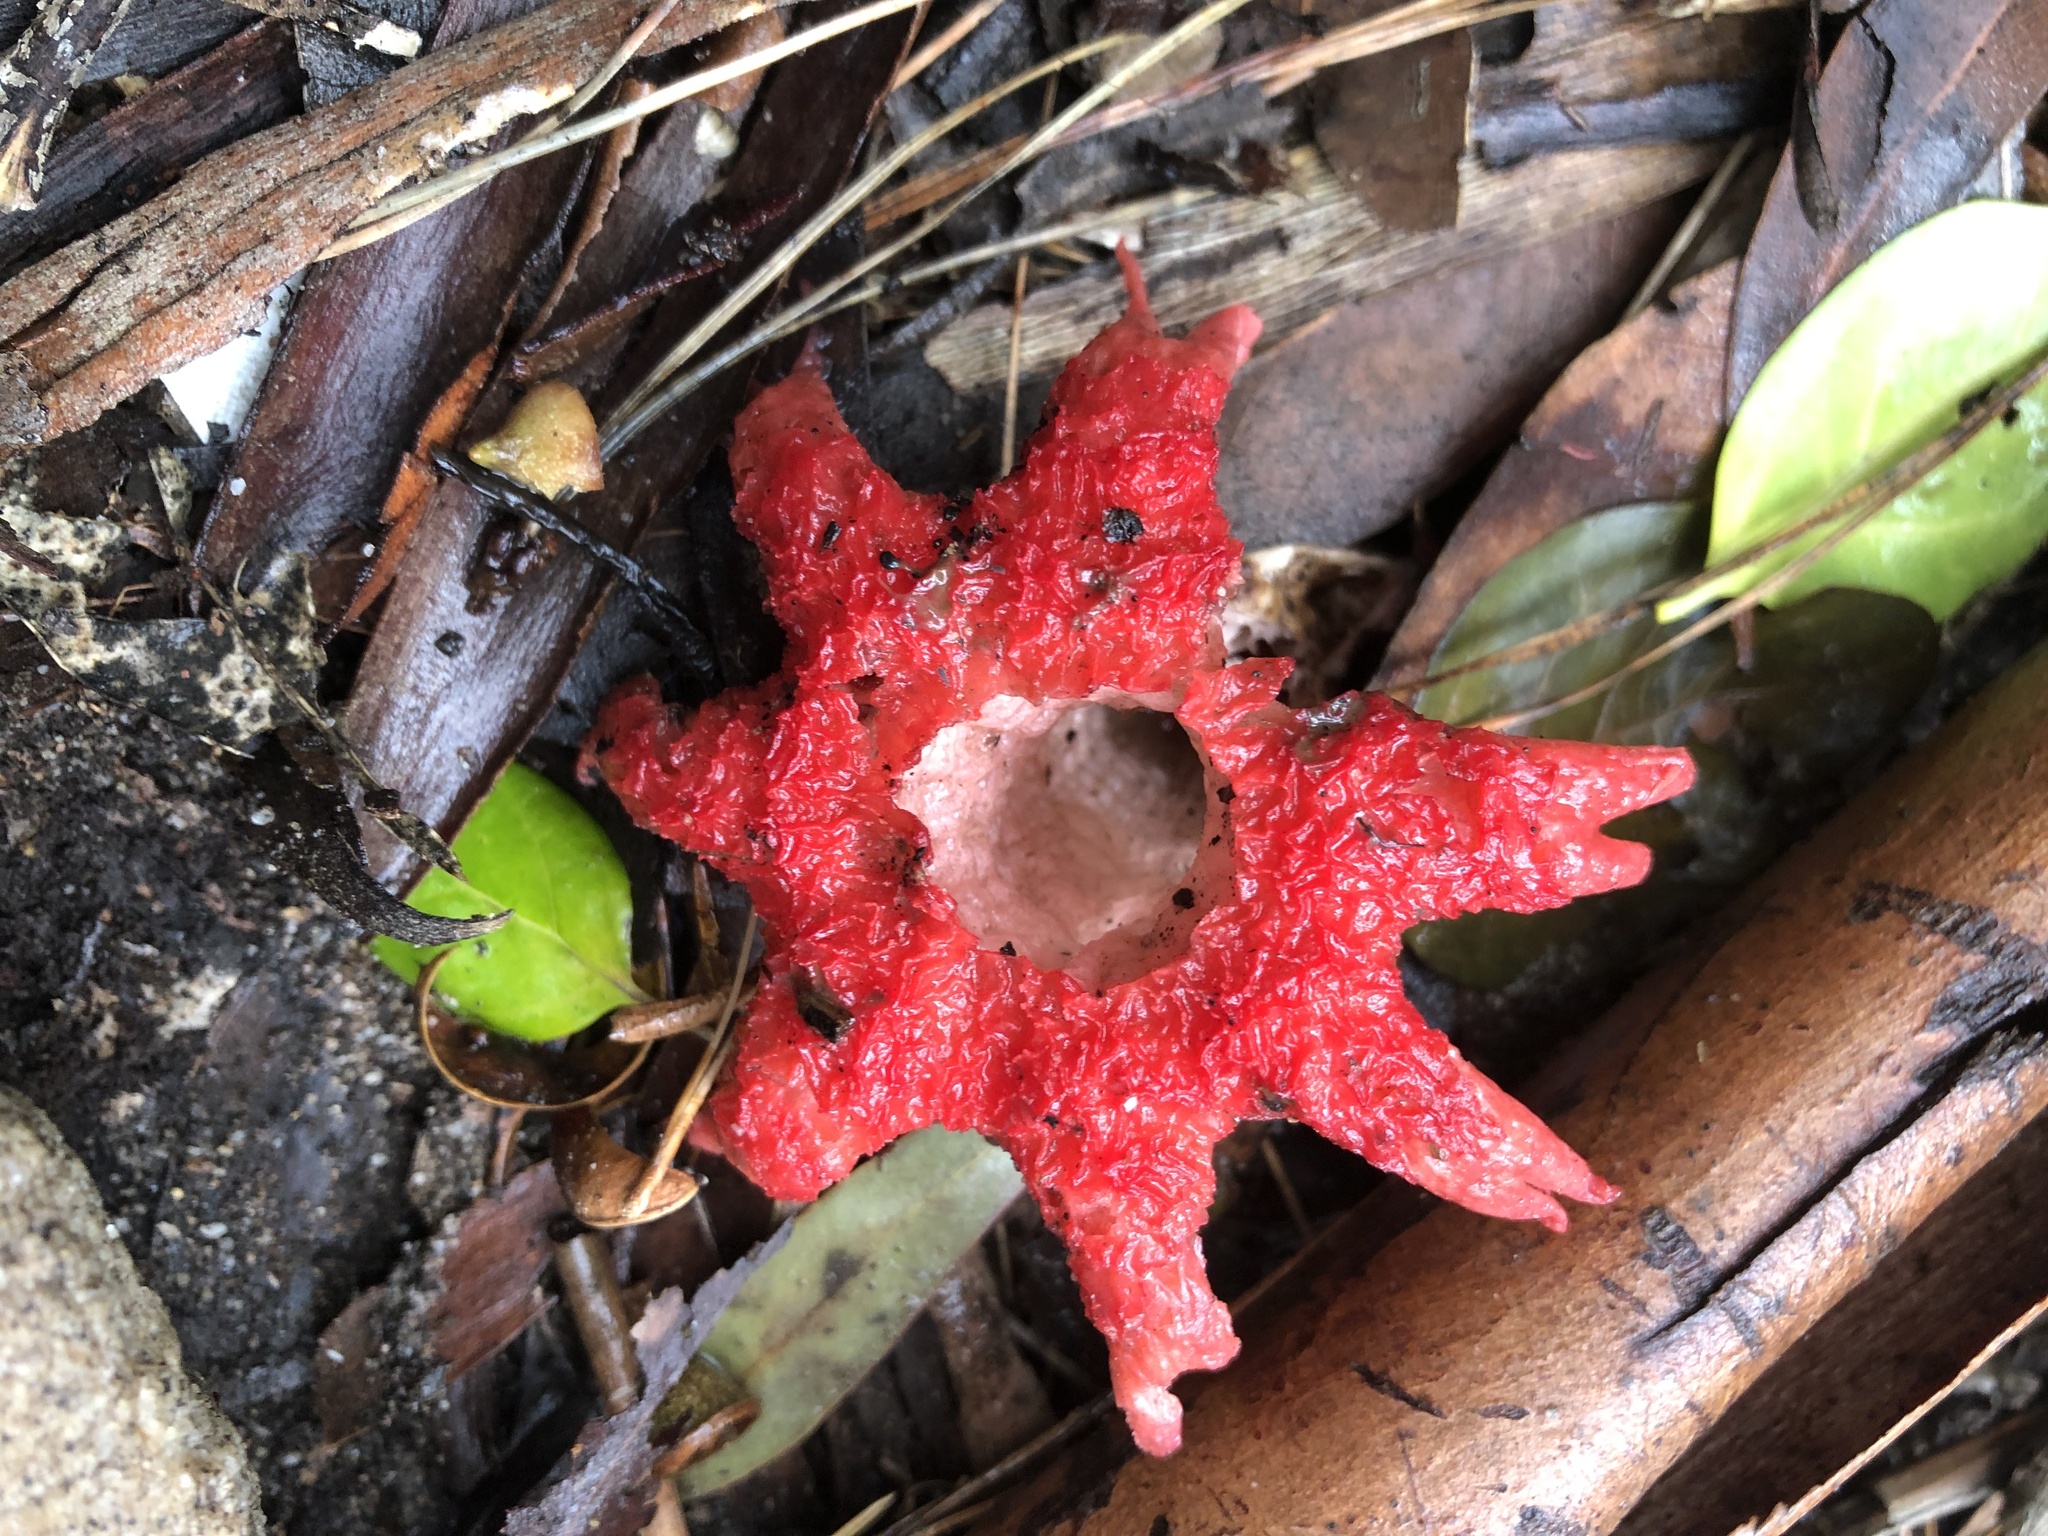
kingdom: Fungi
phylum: Basidiomycota
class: Agaricomycetes
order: Phallales
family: Phallaceae
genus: Aseroe
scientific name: Aseroe rubra
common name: Starfish fungus
